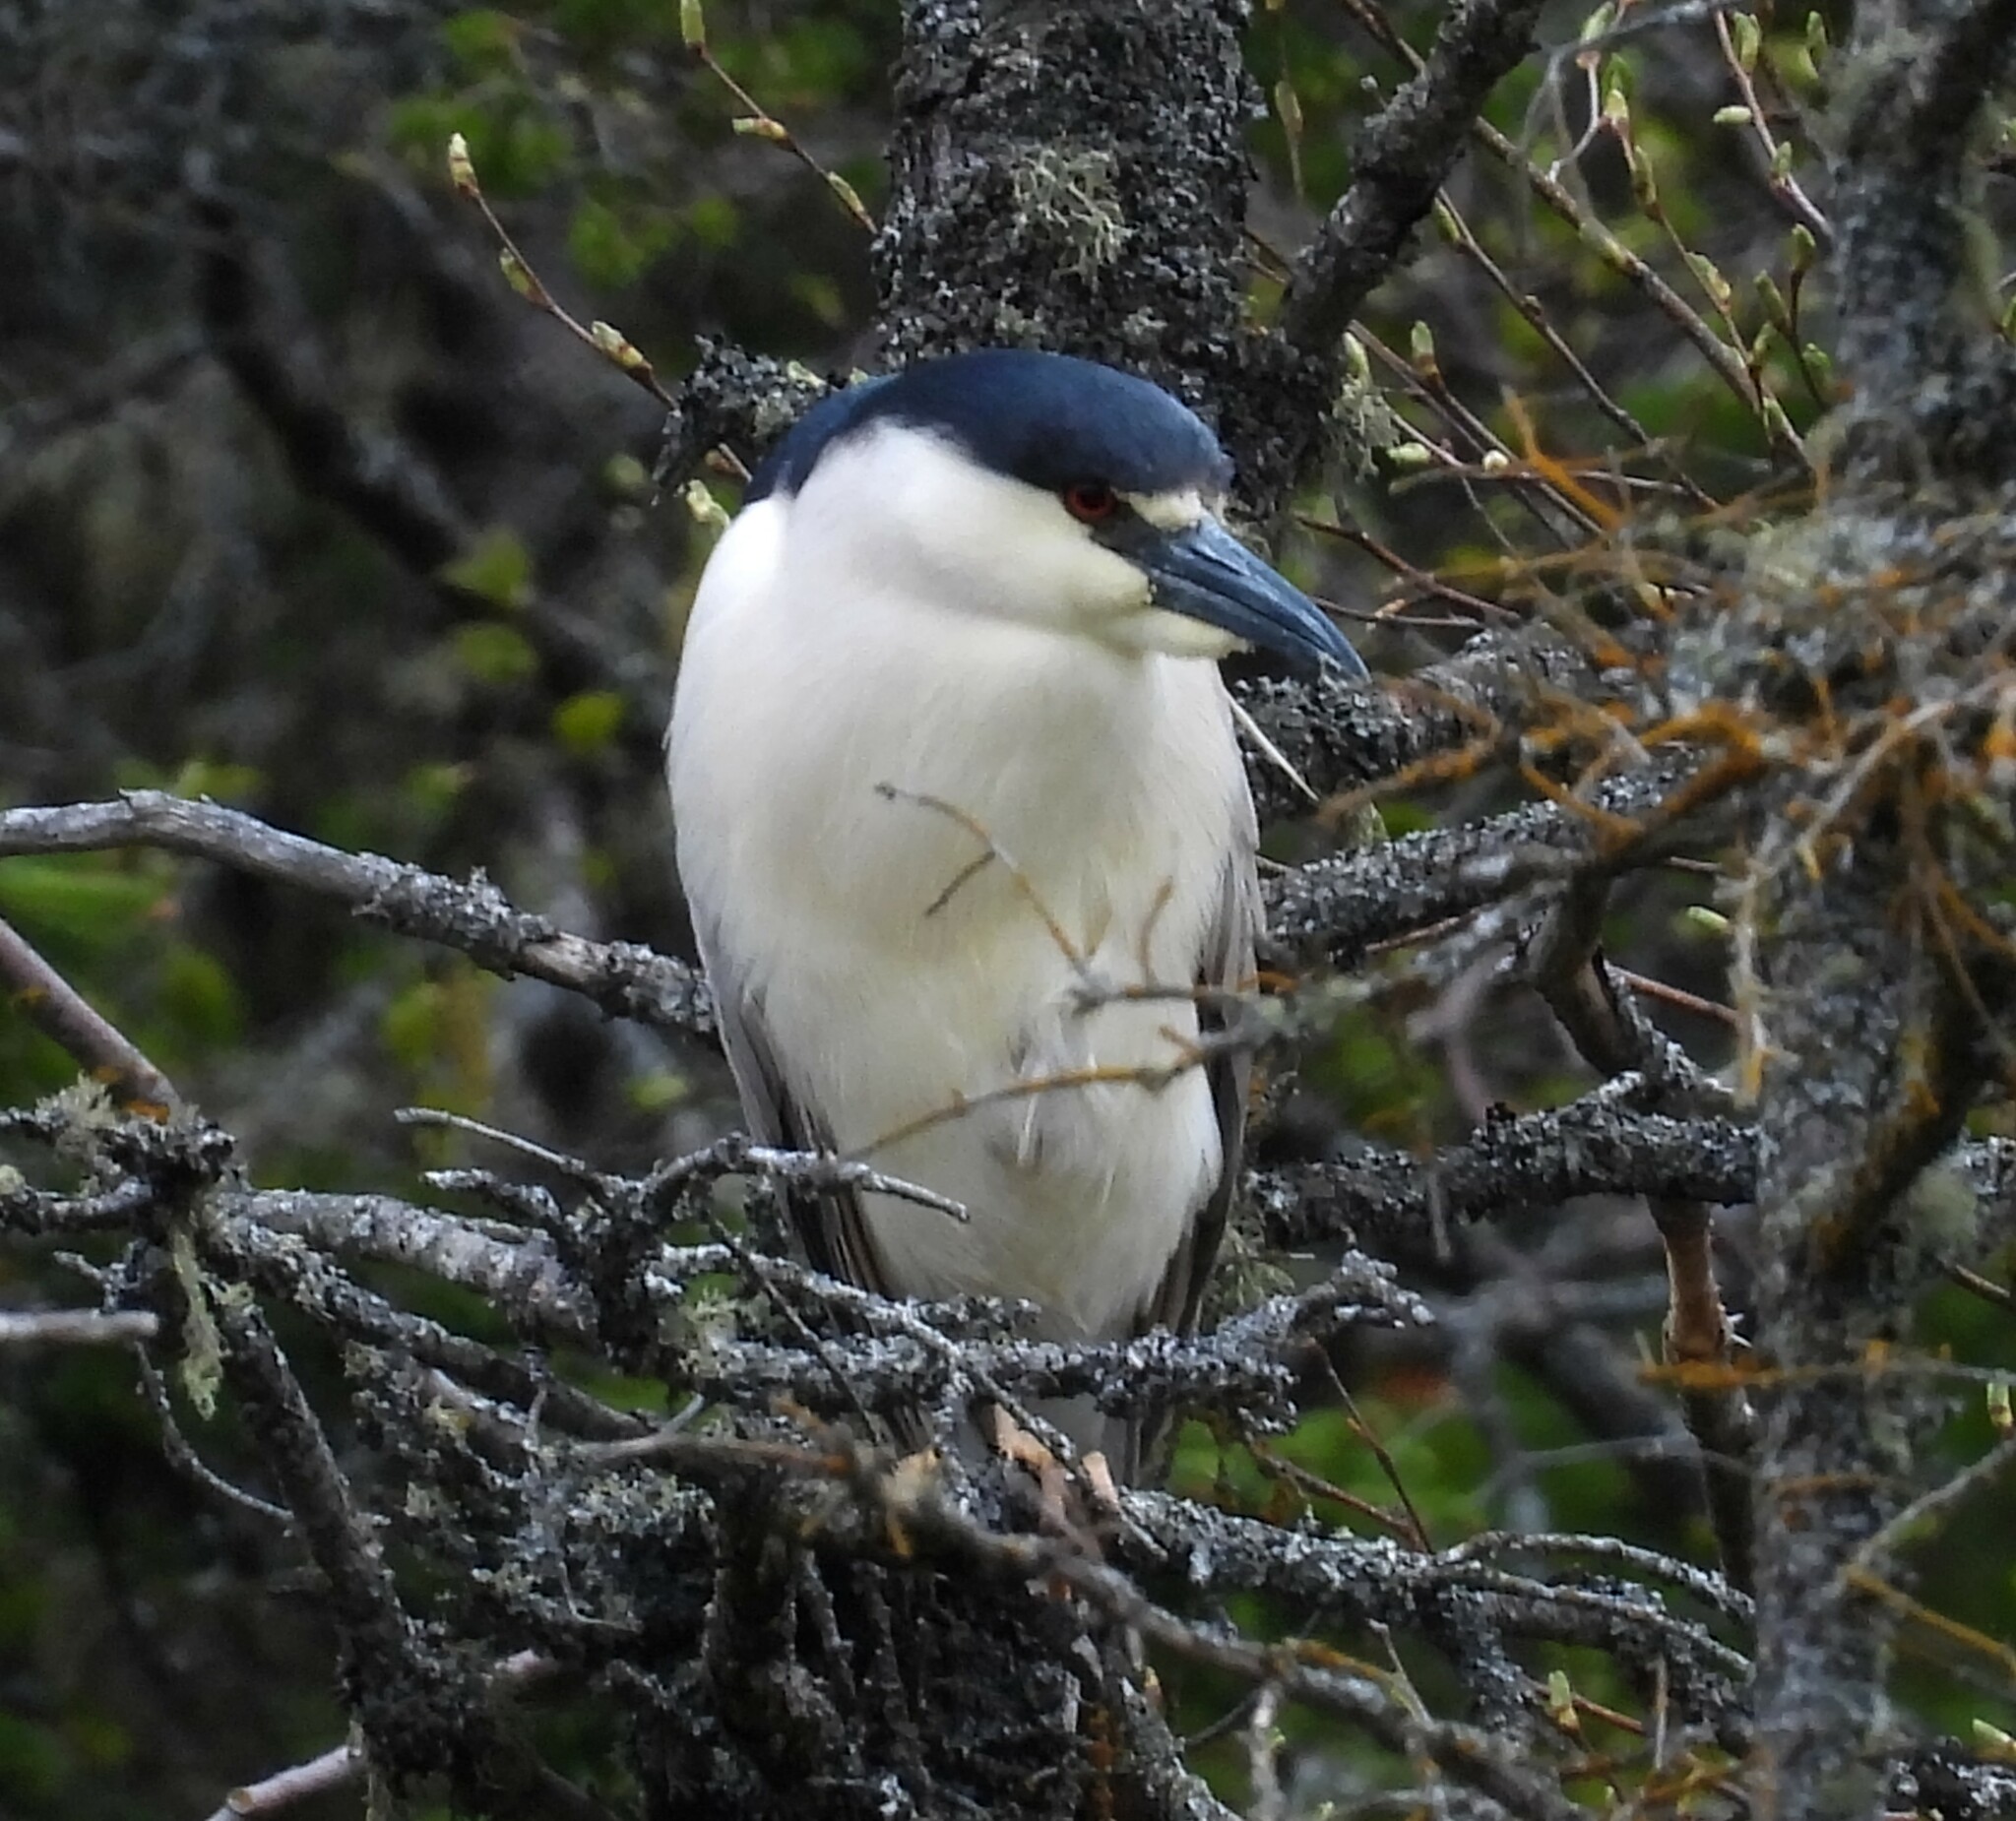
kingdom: Animalia
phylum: Chordata
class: Aves
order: Pelecaniformes
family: Ardeidae
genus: Nycticorax
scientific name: Nycticorax nycticorax
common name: Black-crowned night heron
